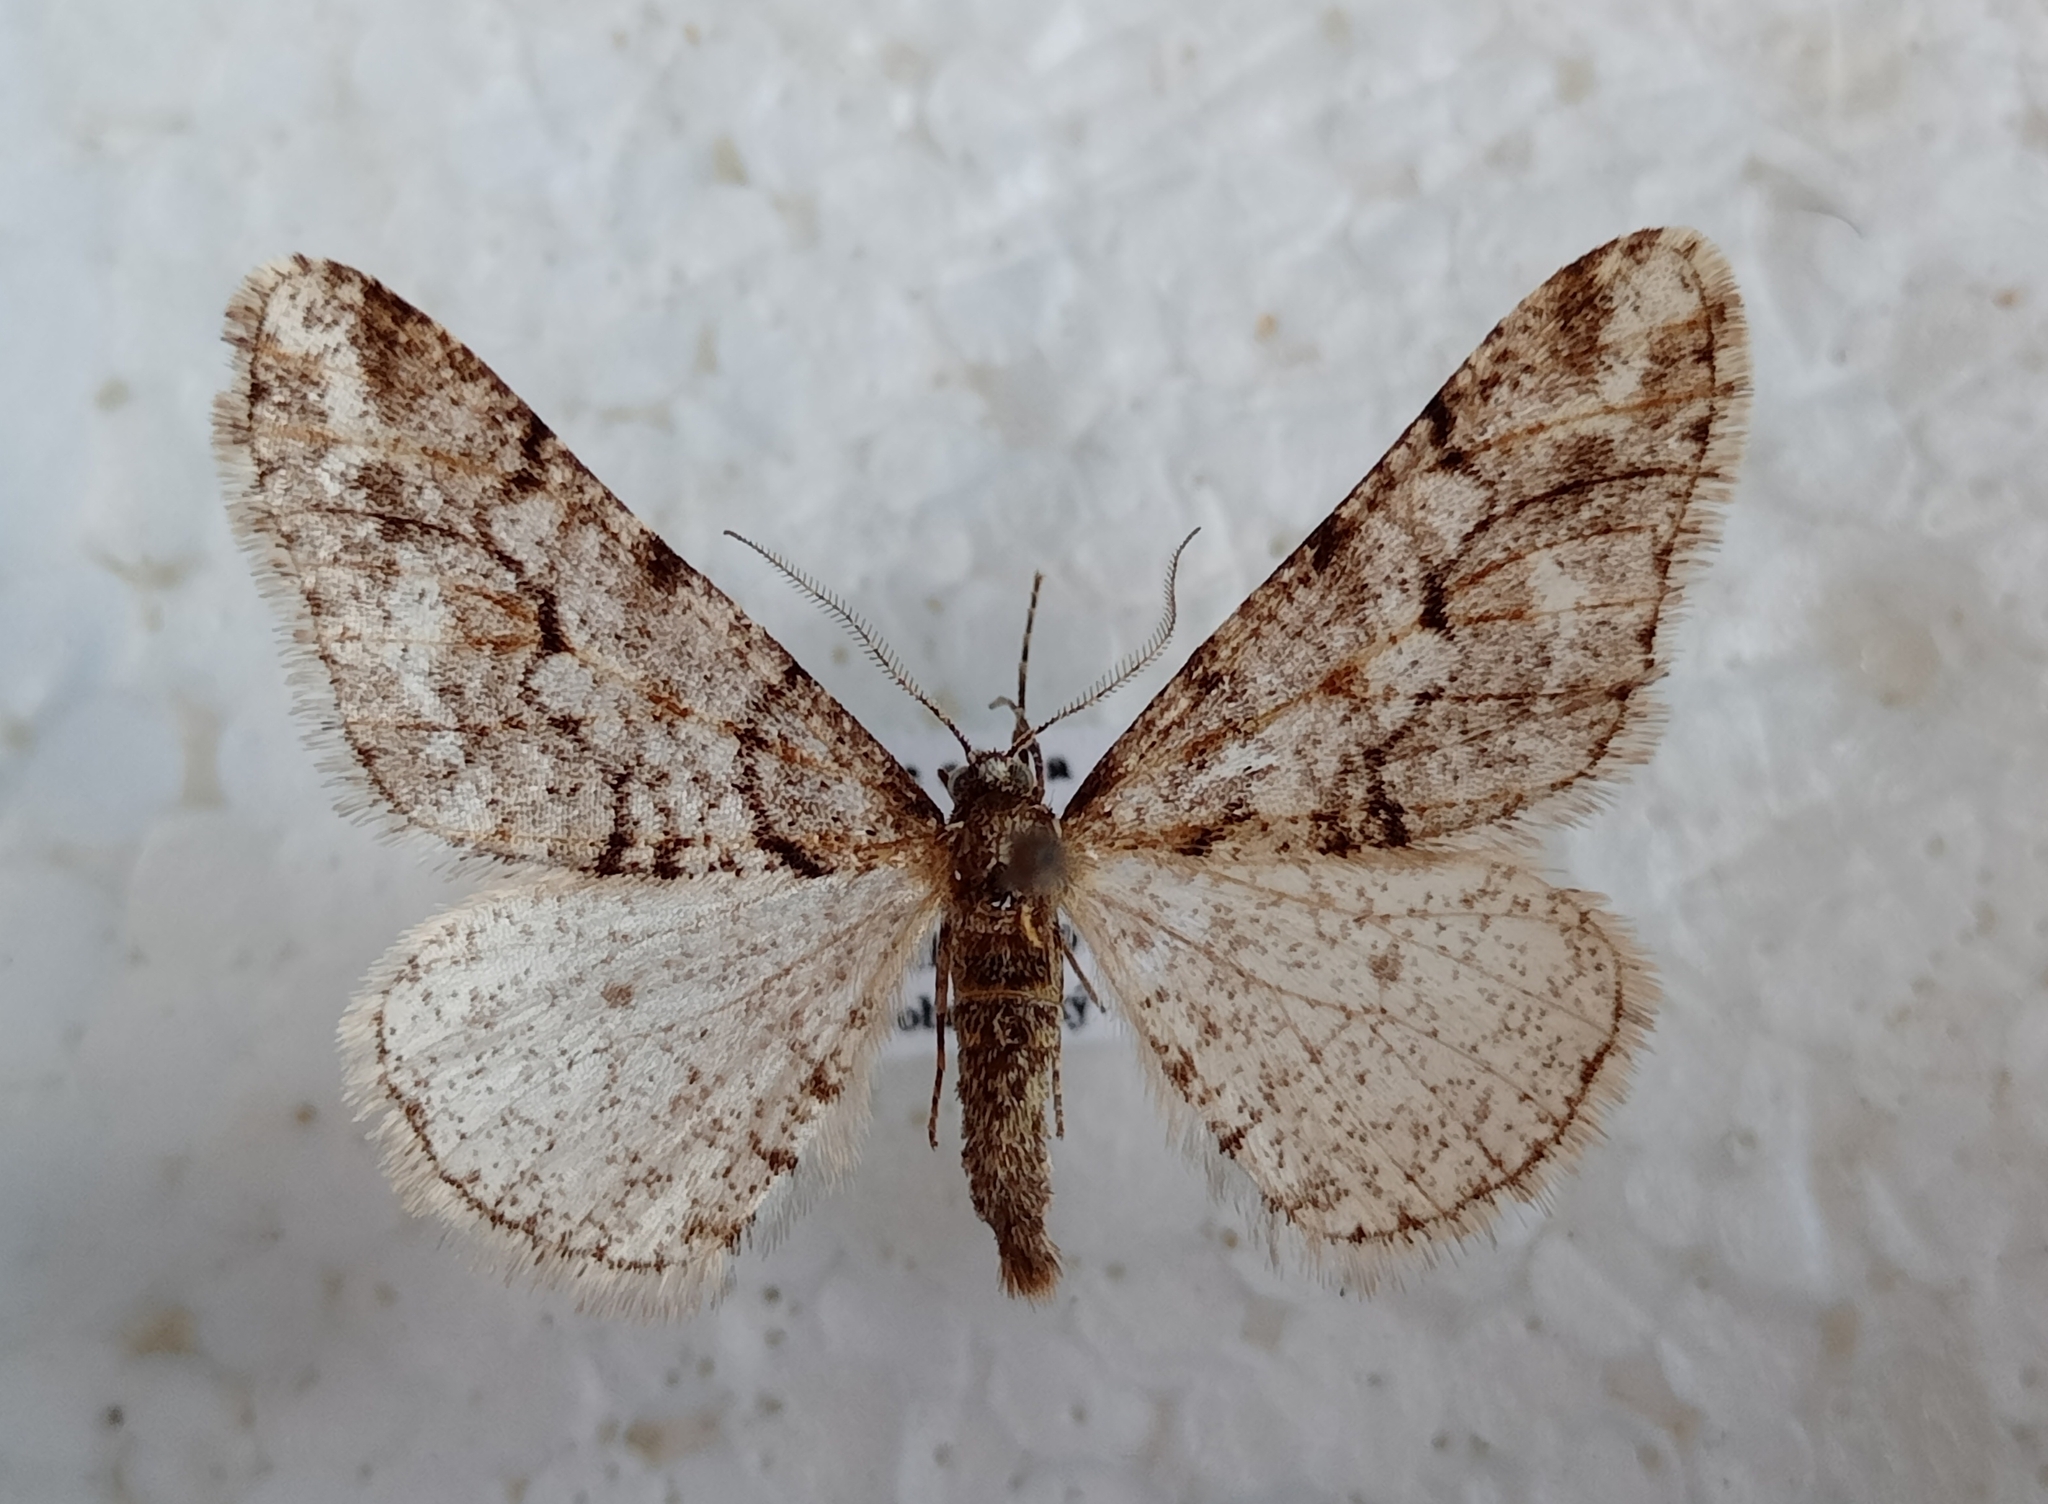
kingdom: Animalia
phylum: Arthropoda
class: Insecta
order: Lepidoptera
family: Geometridae
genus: Agriopis
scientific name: Agriopis leucophaearia
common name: Spring usher
